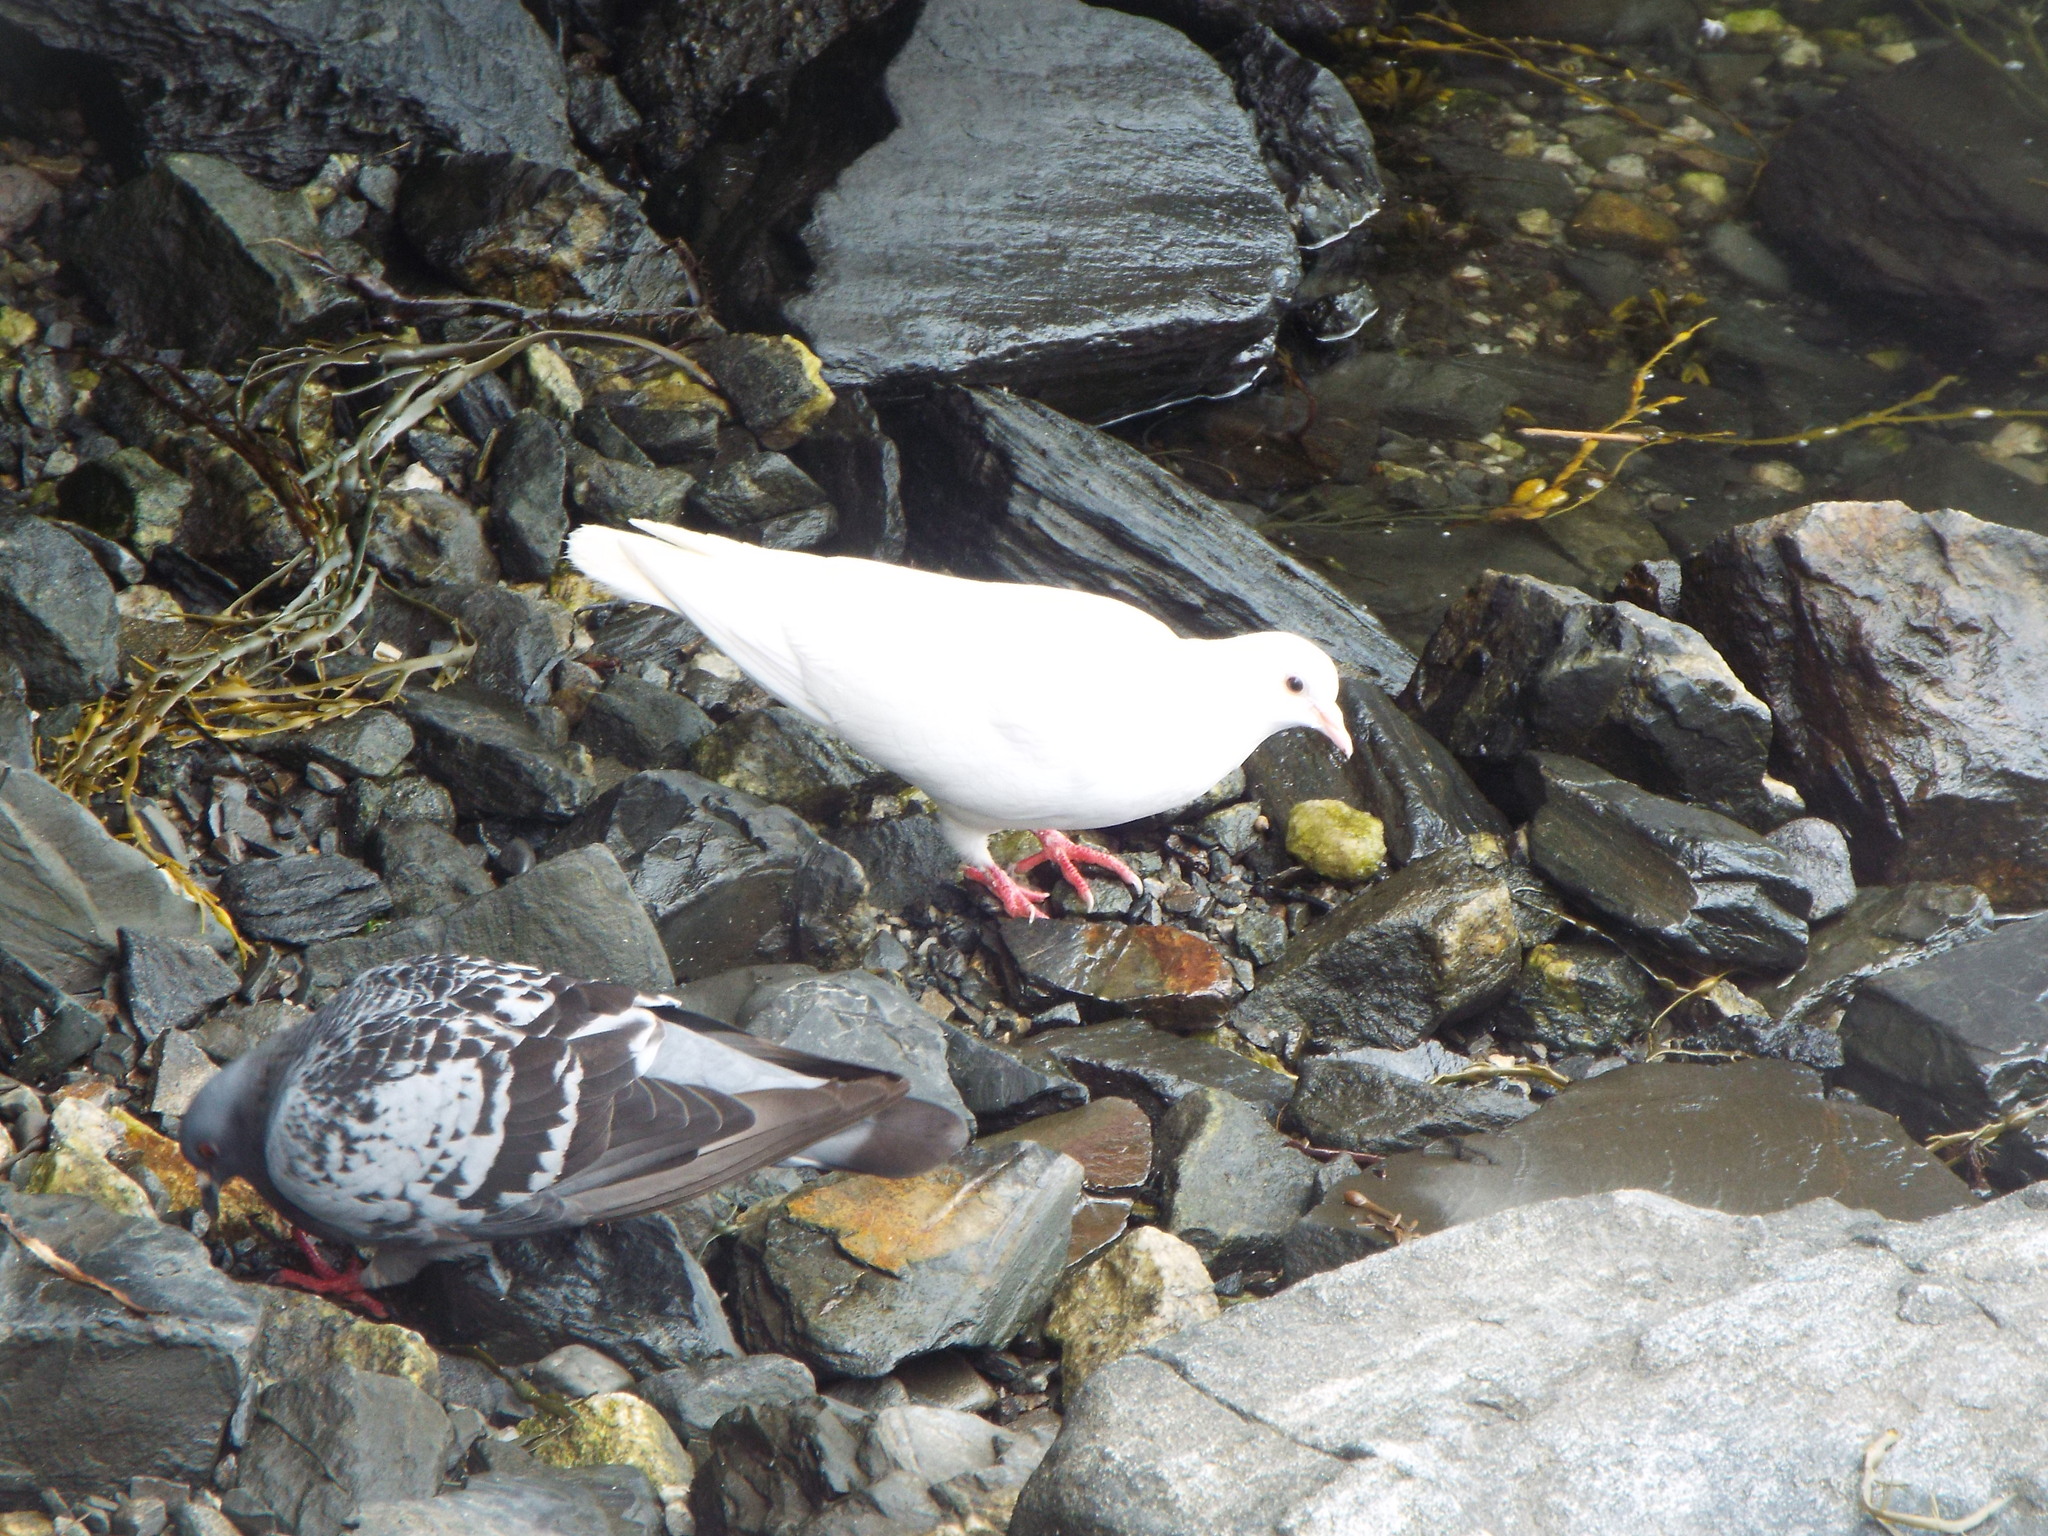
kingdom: Animalia
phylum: Chordata
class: Aves
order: Columbiformes
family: Columbidae
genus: Columba
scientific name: Columba livia
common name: Rock pigeon
